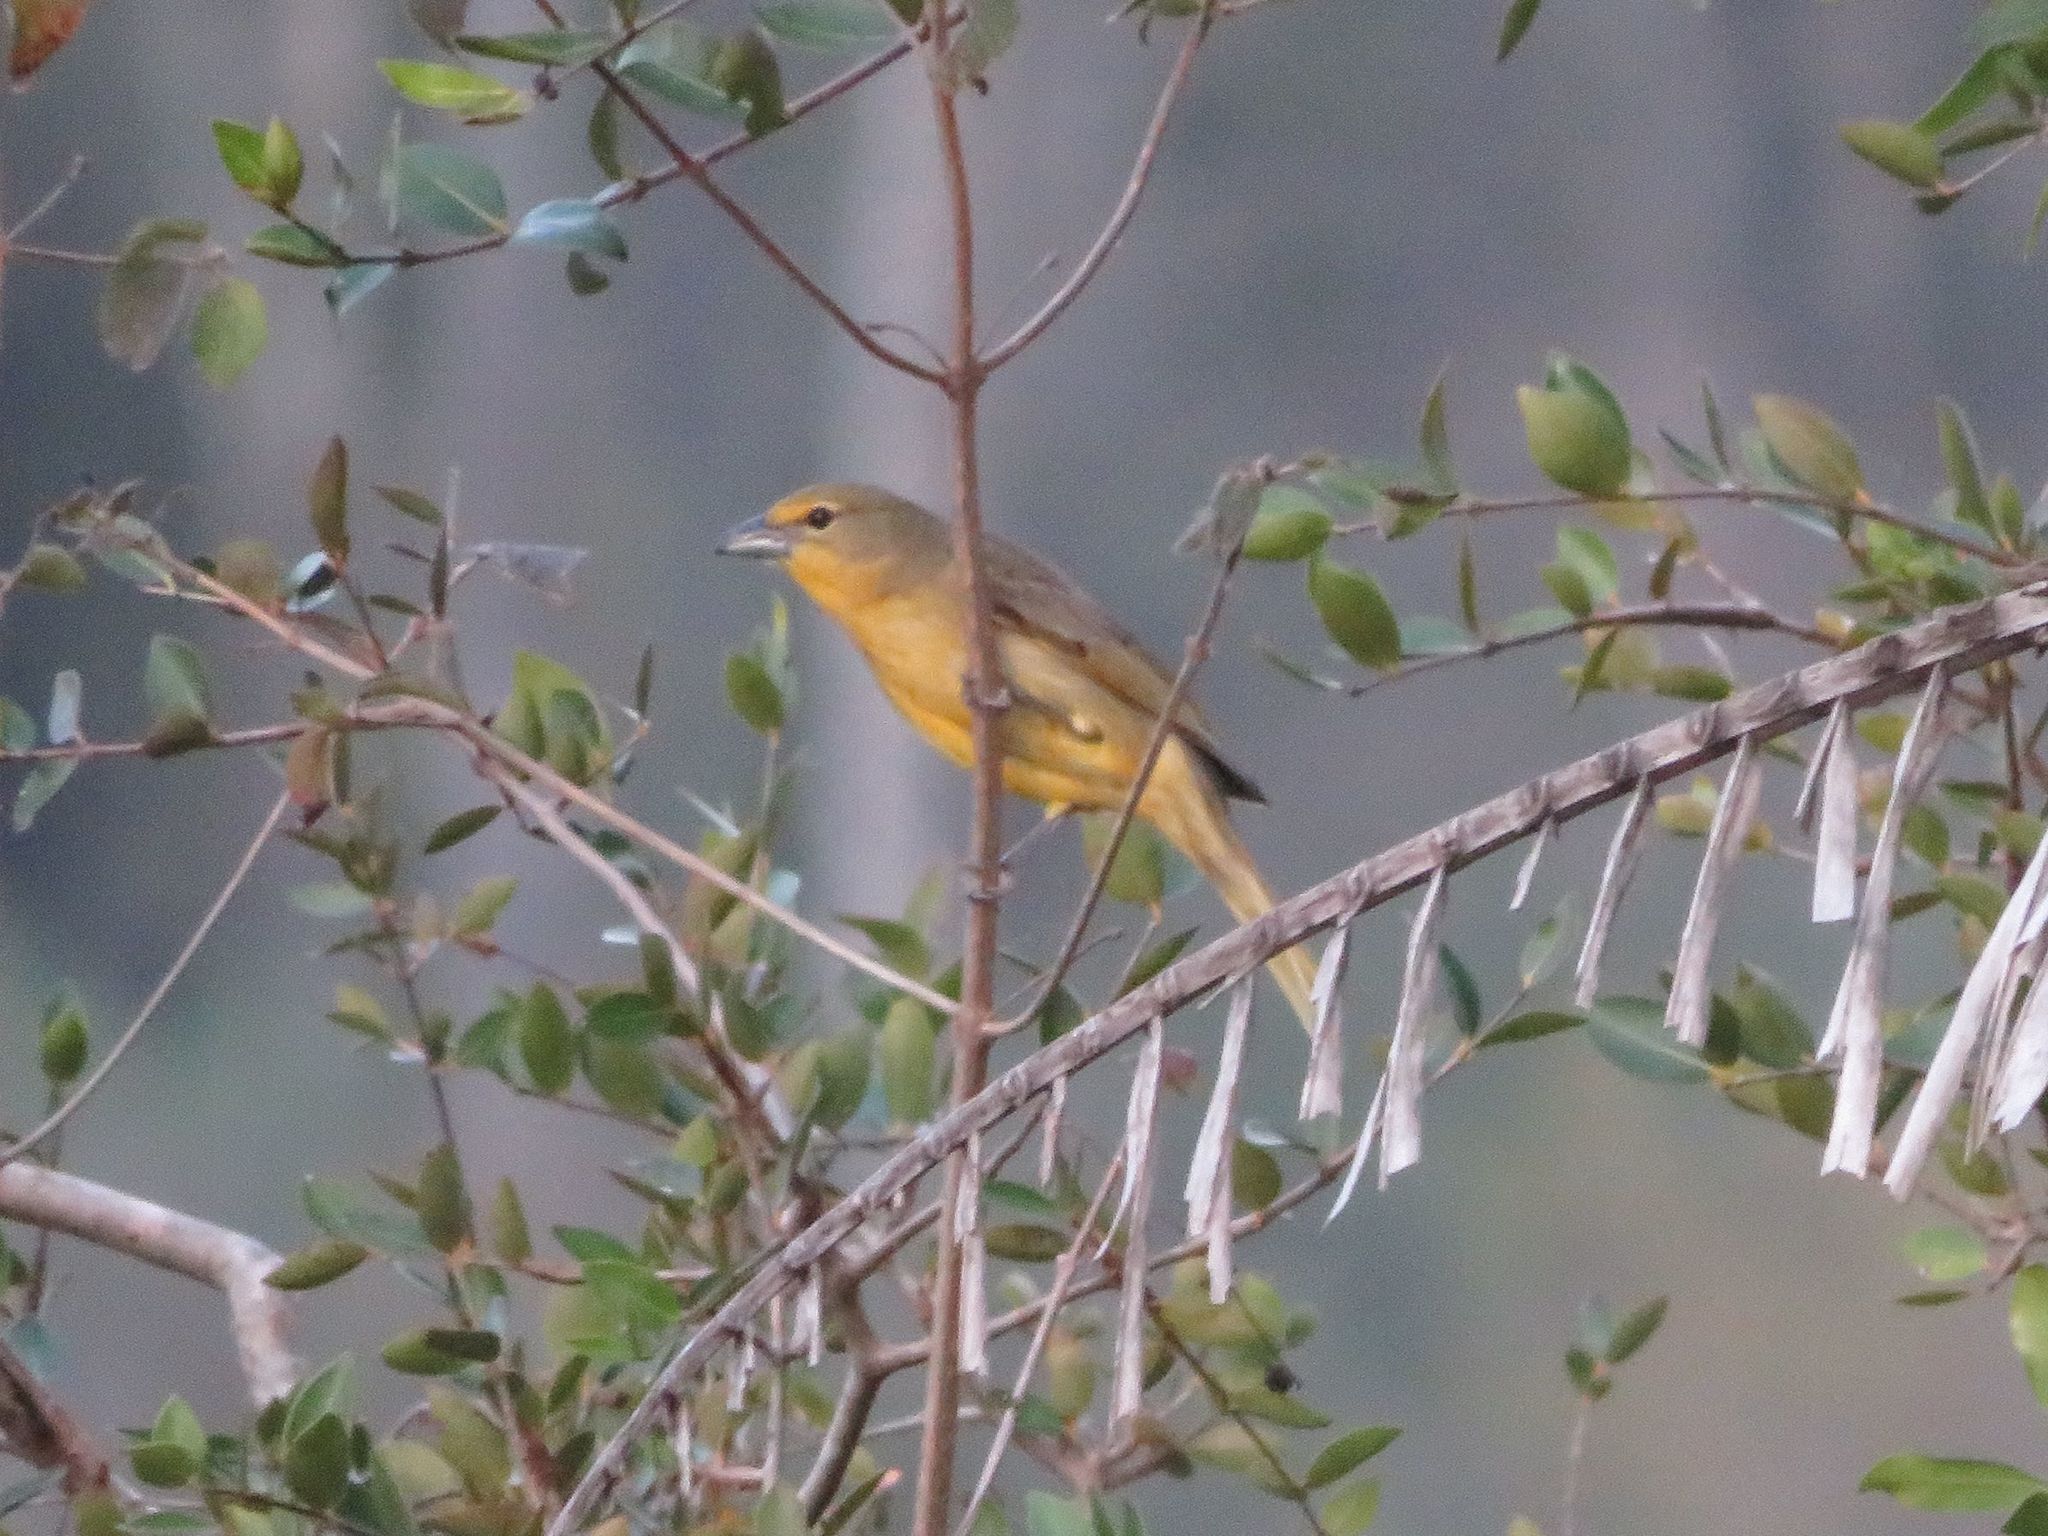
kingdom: Animalia
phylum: Chordata
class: Aves
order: Passeriformes
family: Cardinalidae
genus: Piranga
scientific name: Piranga flava
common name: Red tanager
